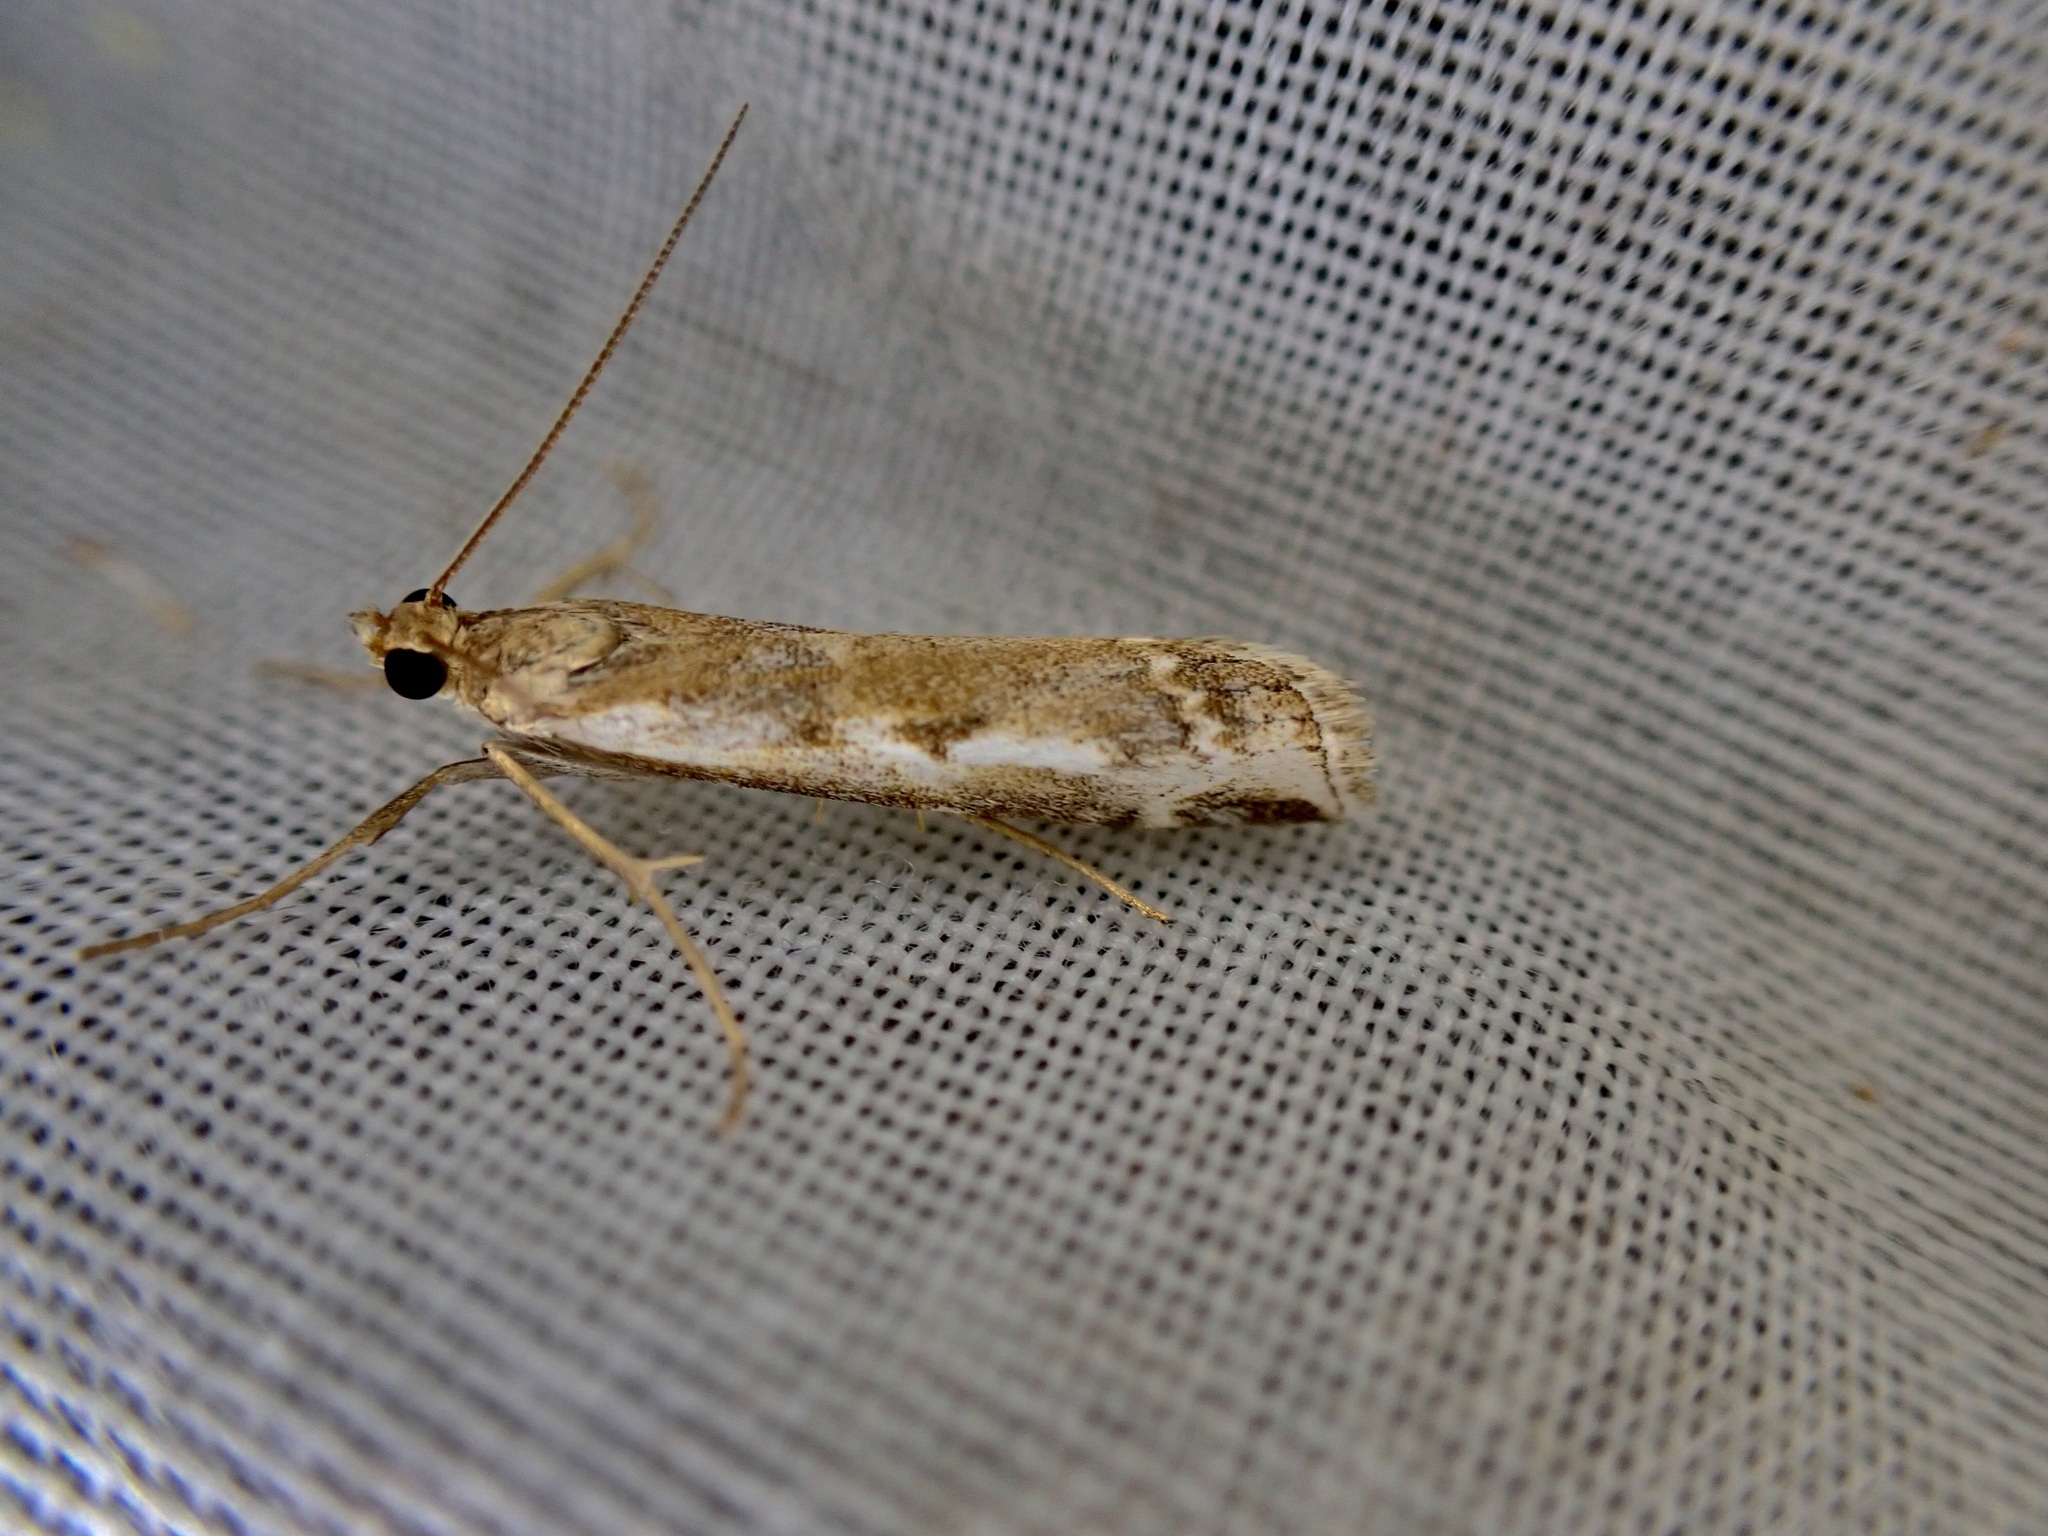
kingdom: Animalia
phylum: Arthropoda
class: Insecta
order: Lepidoptera
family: Crambidae
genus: Orocrambus
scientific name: Orocrambus vulgaris
